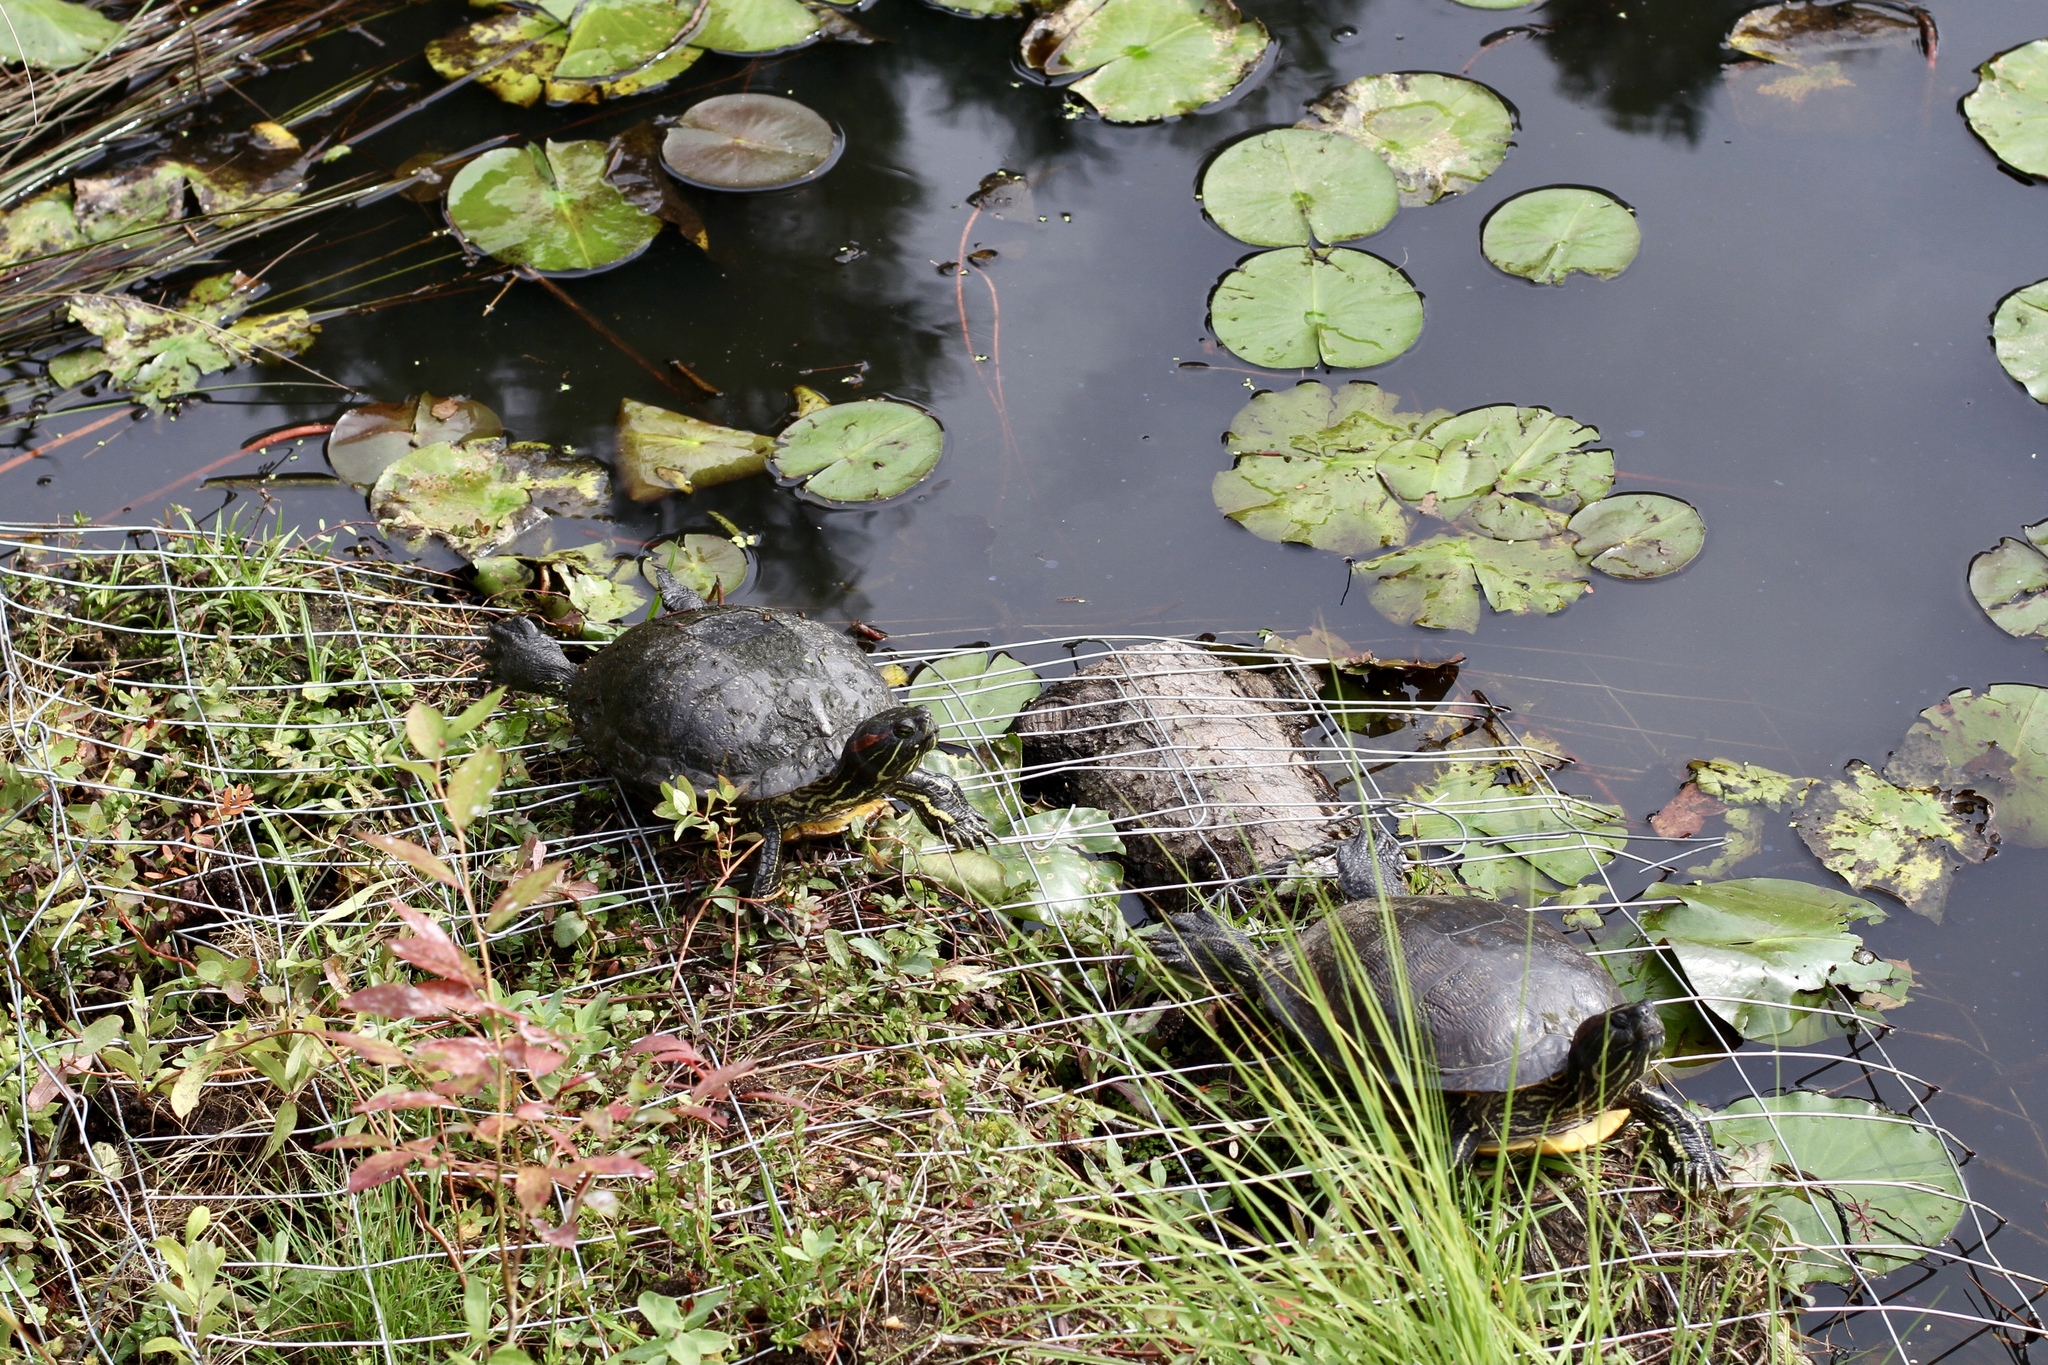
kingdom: Animalia
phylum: Chordata
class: Testudines
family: Emydidae
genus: Trachemys
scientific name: Trachemys scripta
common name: Slider
